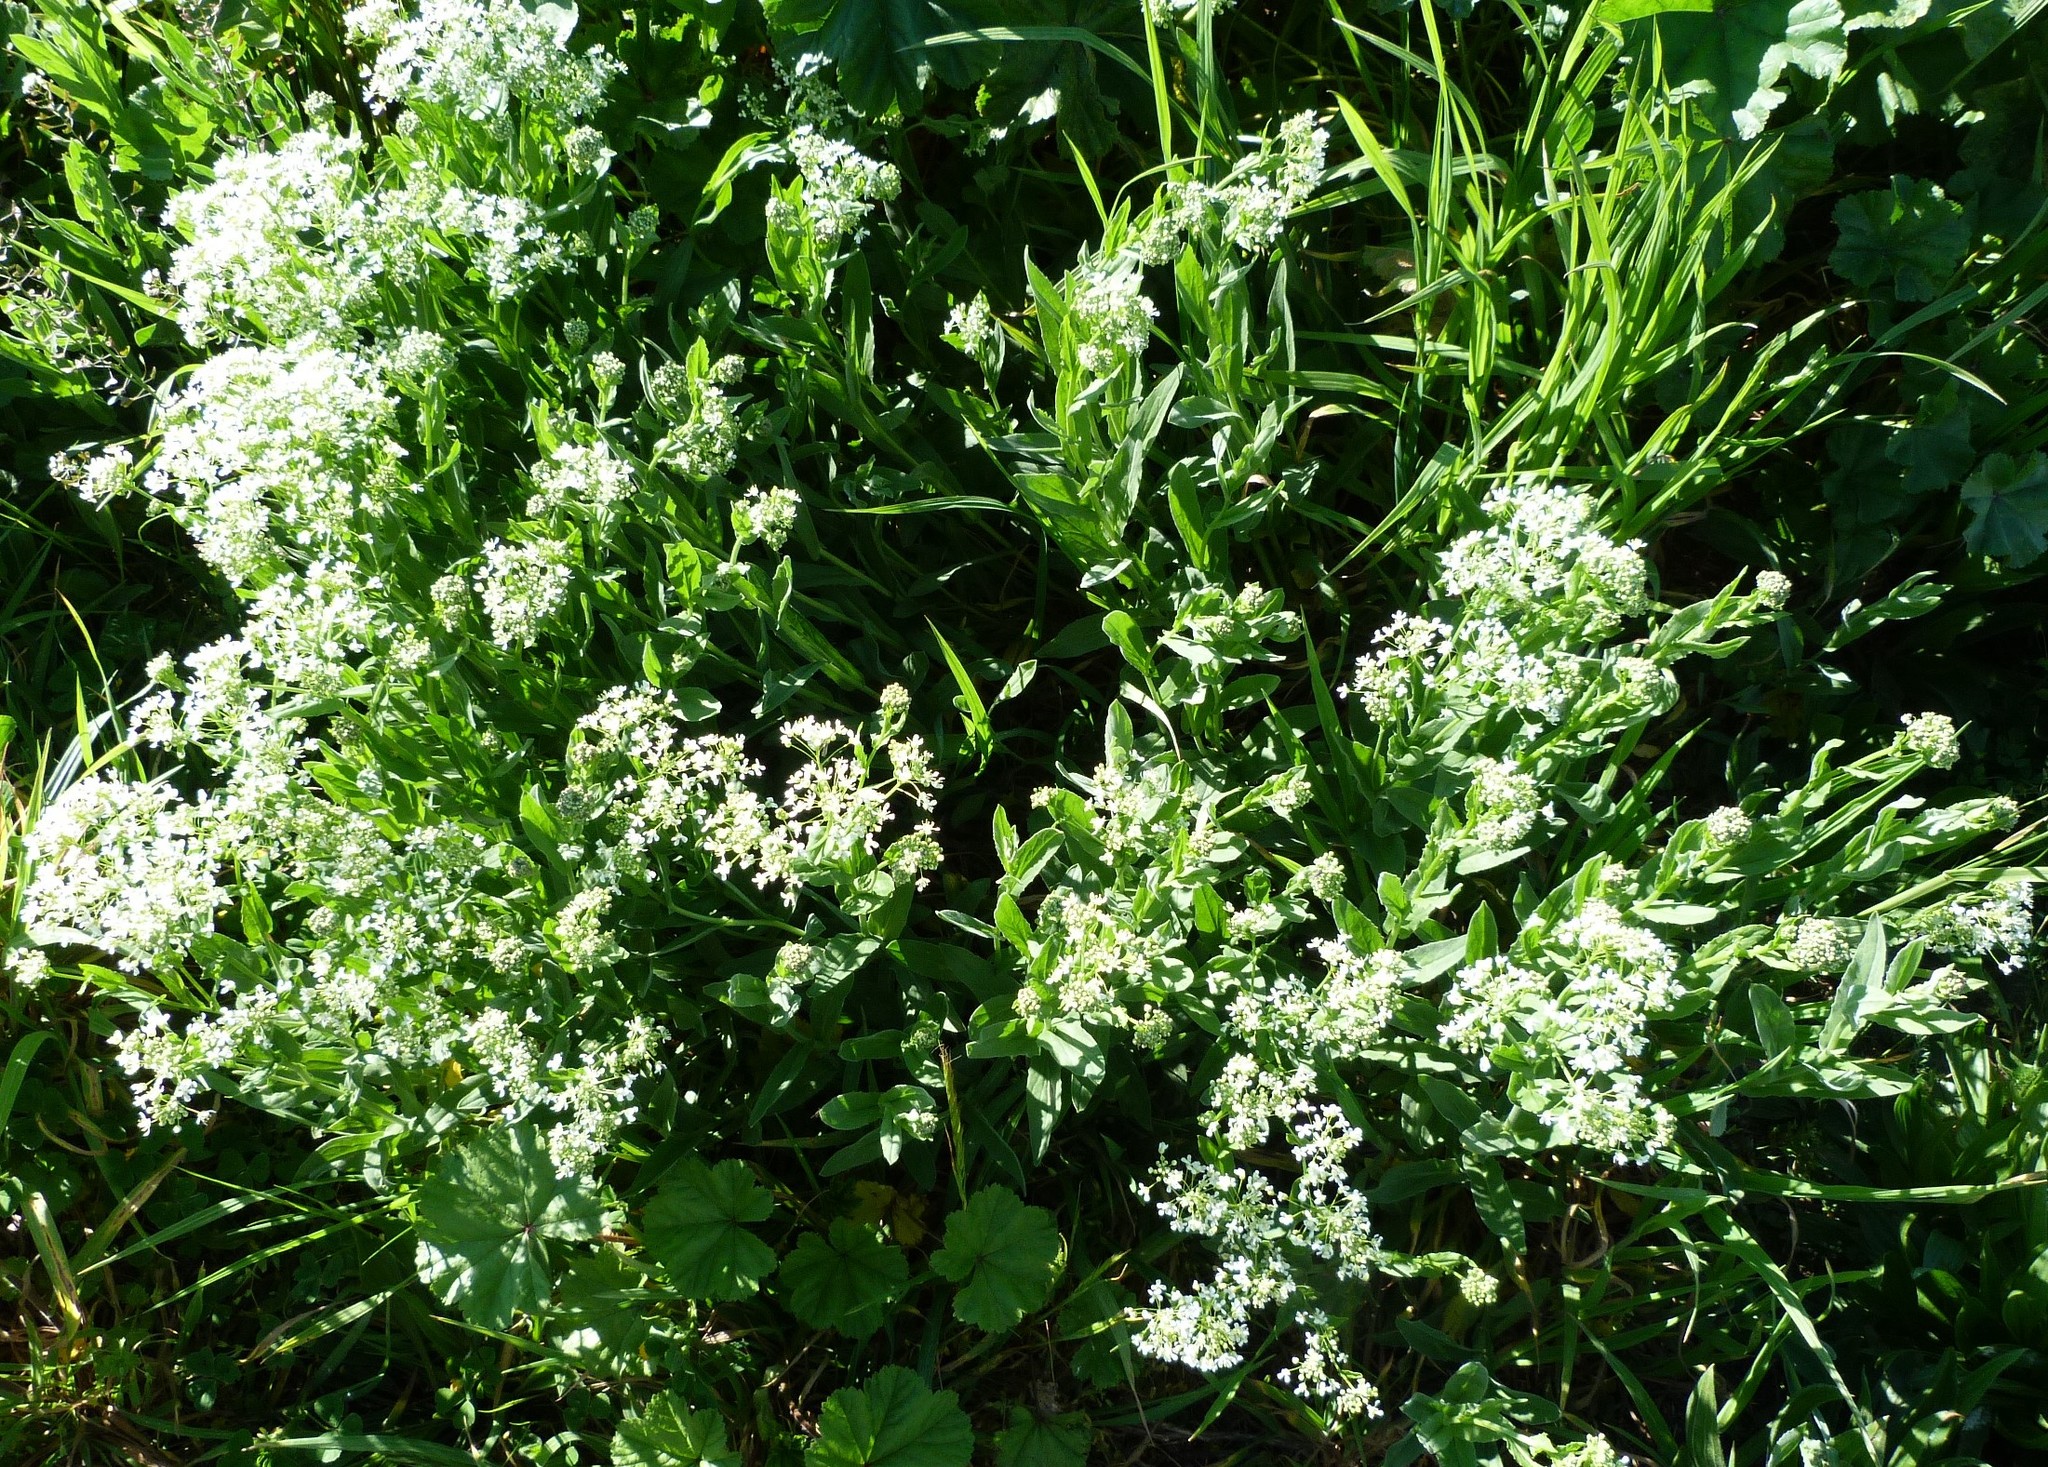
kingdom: Plantae
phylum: Tracheophyta
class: Magnoliopsida
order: Brassicales
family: Brassicaceae
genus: Lepidium
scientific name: Lepidium draba
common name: Hoary cress
